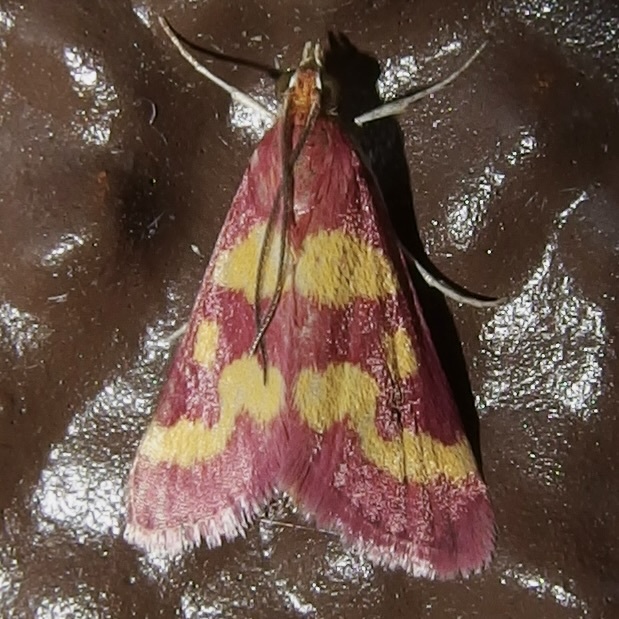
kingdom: Animalia
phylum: Arthropoda
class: Insecta
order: Lepidoptera
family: Crambidae
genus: Pyrausta
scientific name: Pyrausta tyralis
